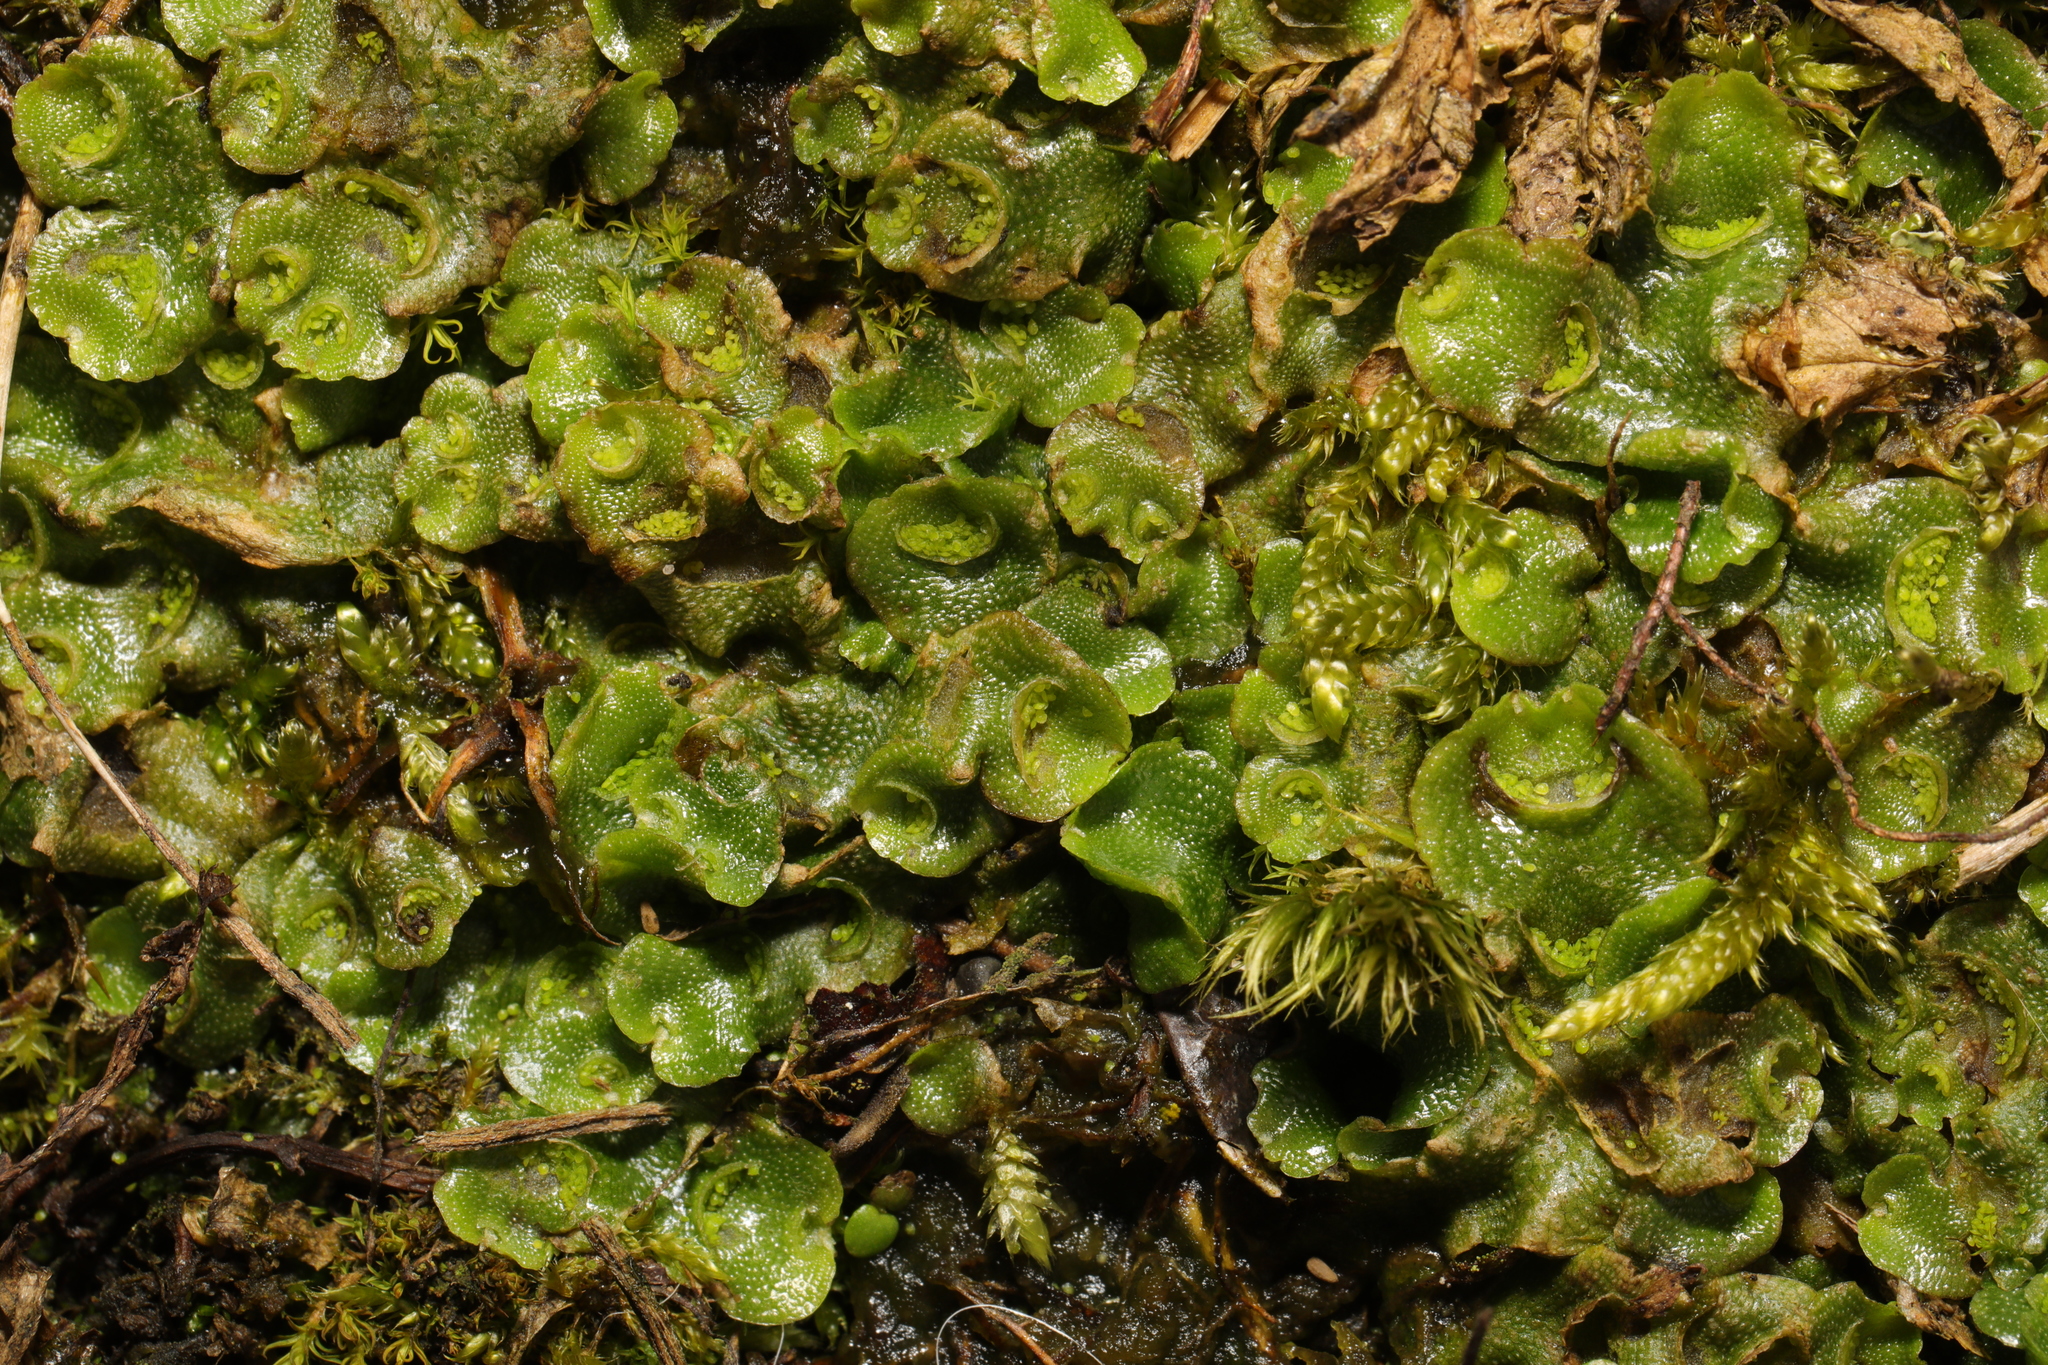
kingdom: Plantae
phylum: Marchantiophyta
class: Marchantiopsida
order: Lunulariales
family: Lunulariaceae
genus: Lunularia
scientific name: Lunularia cruciata
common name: Crescent-cup liverwort
